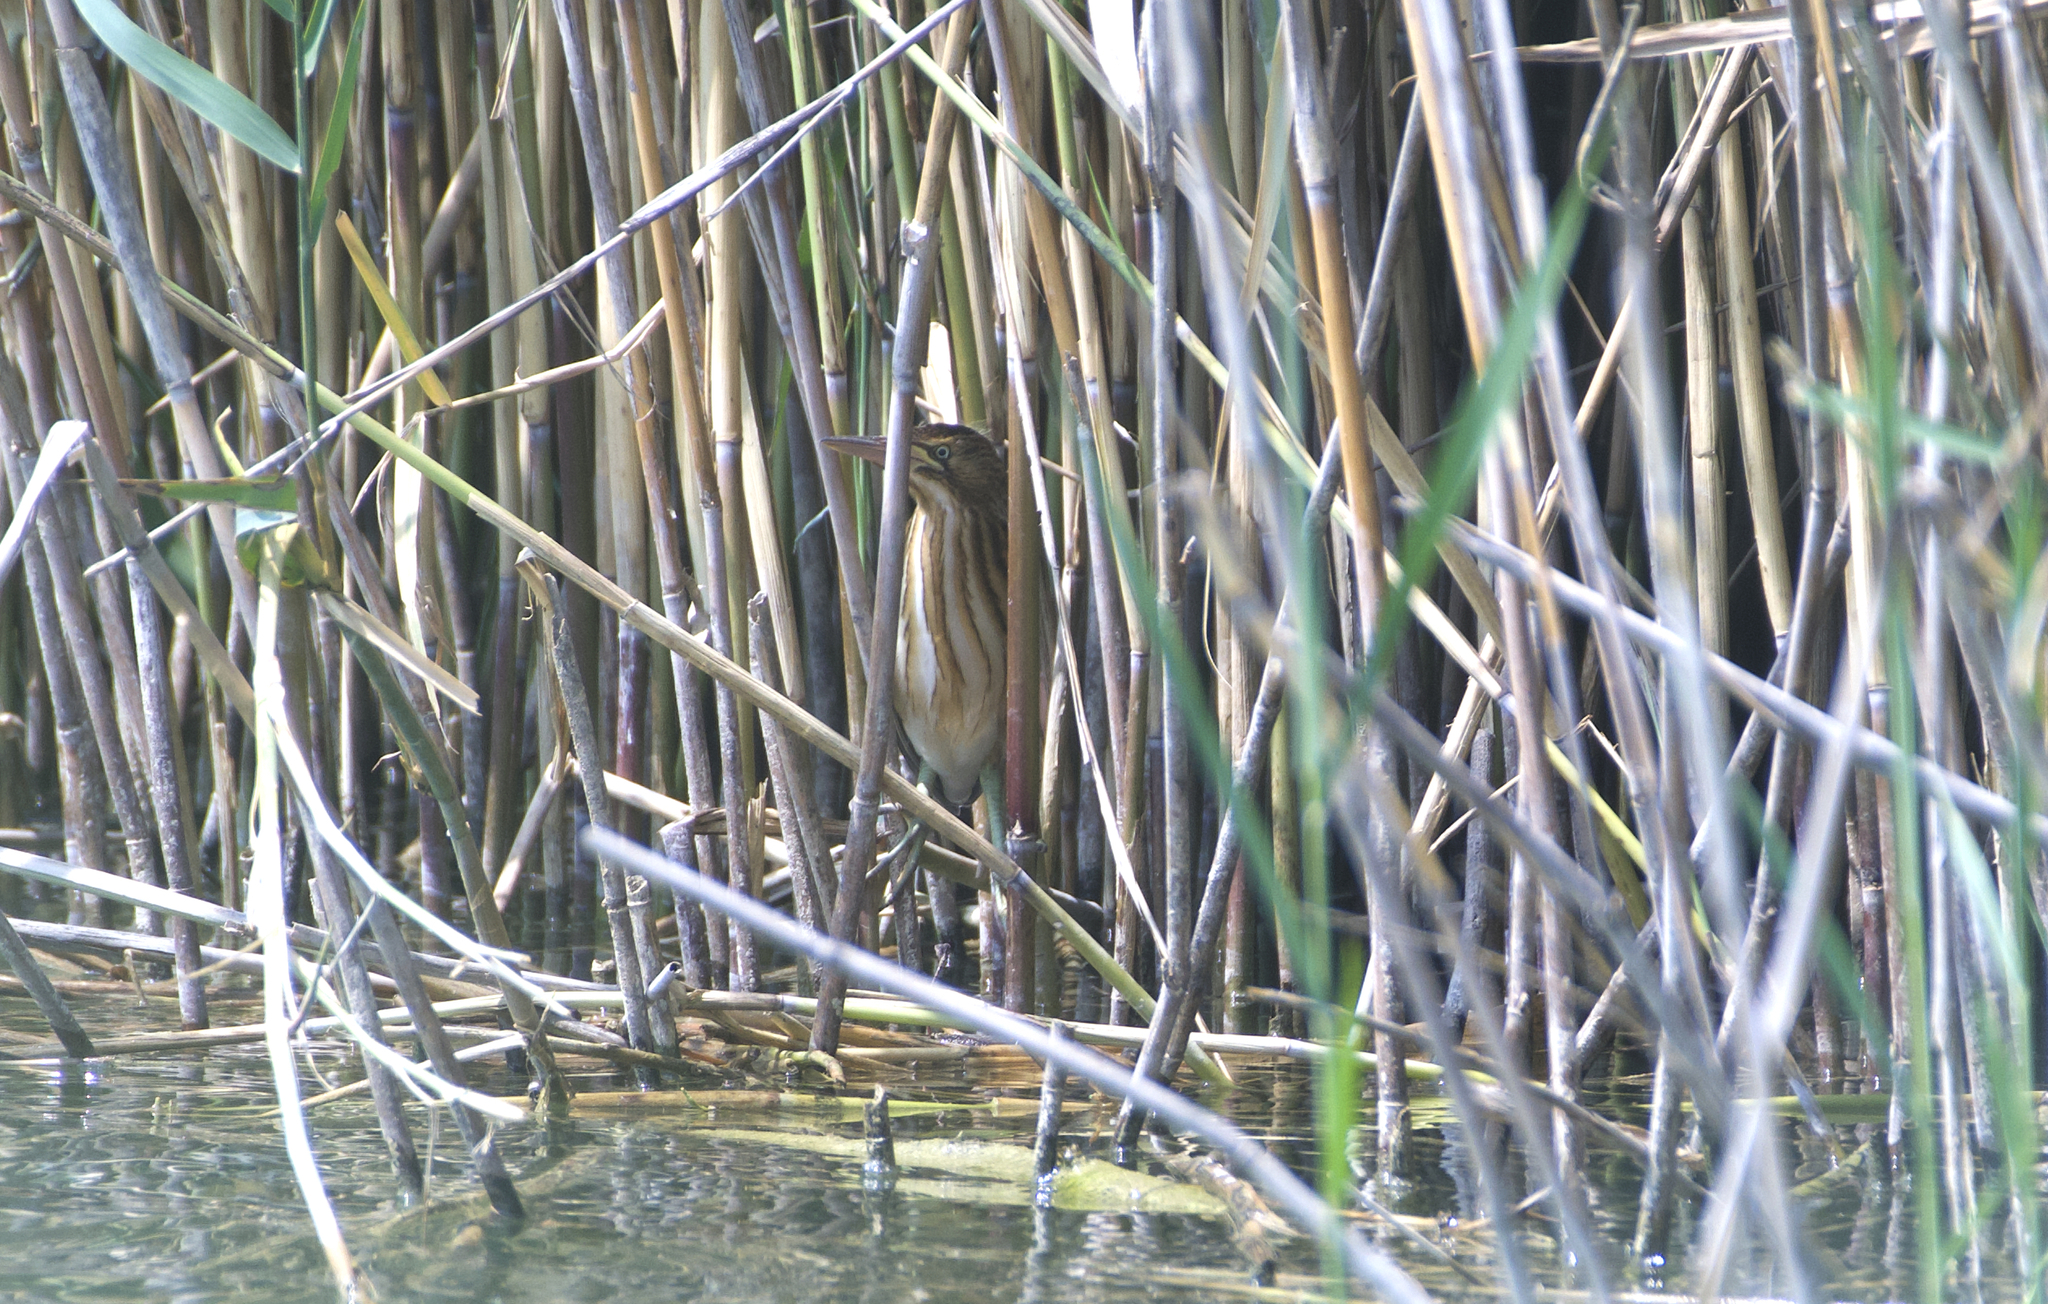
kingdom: Animalia
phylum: Chordata
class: Aves
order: Pelecaniformes
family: Ardeidae
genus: Ixobrychus
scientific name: Ixobrychus minutus
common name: Little bittern
